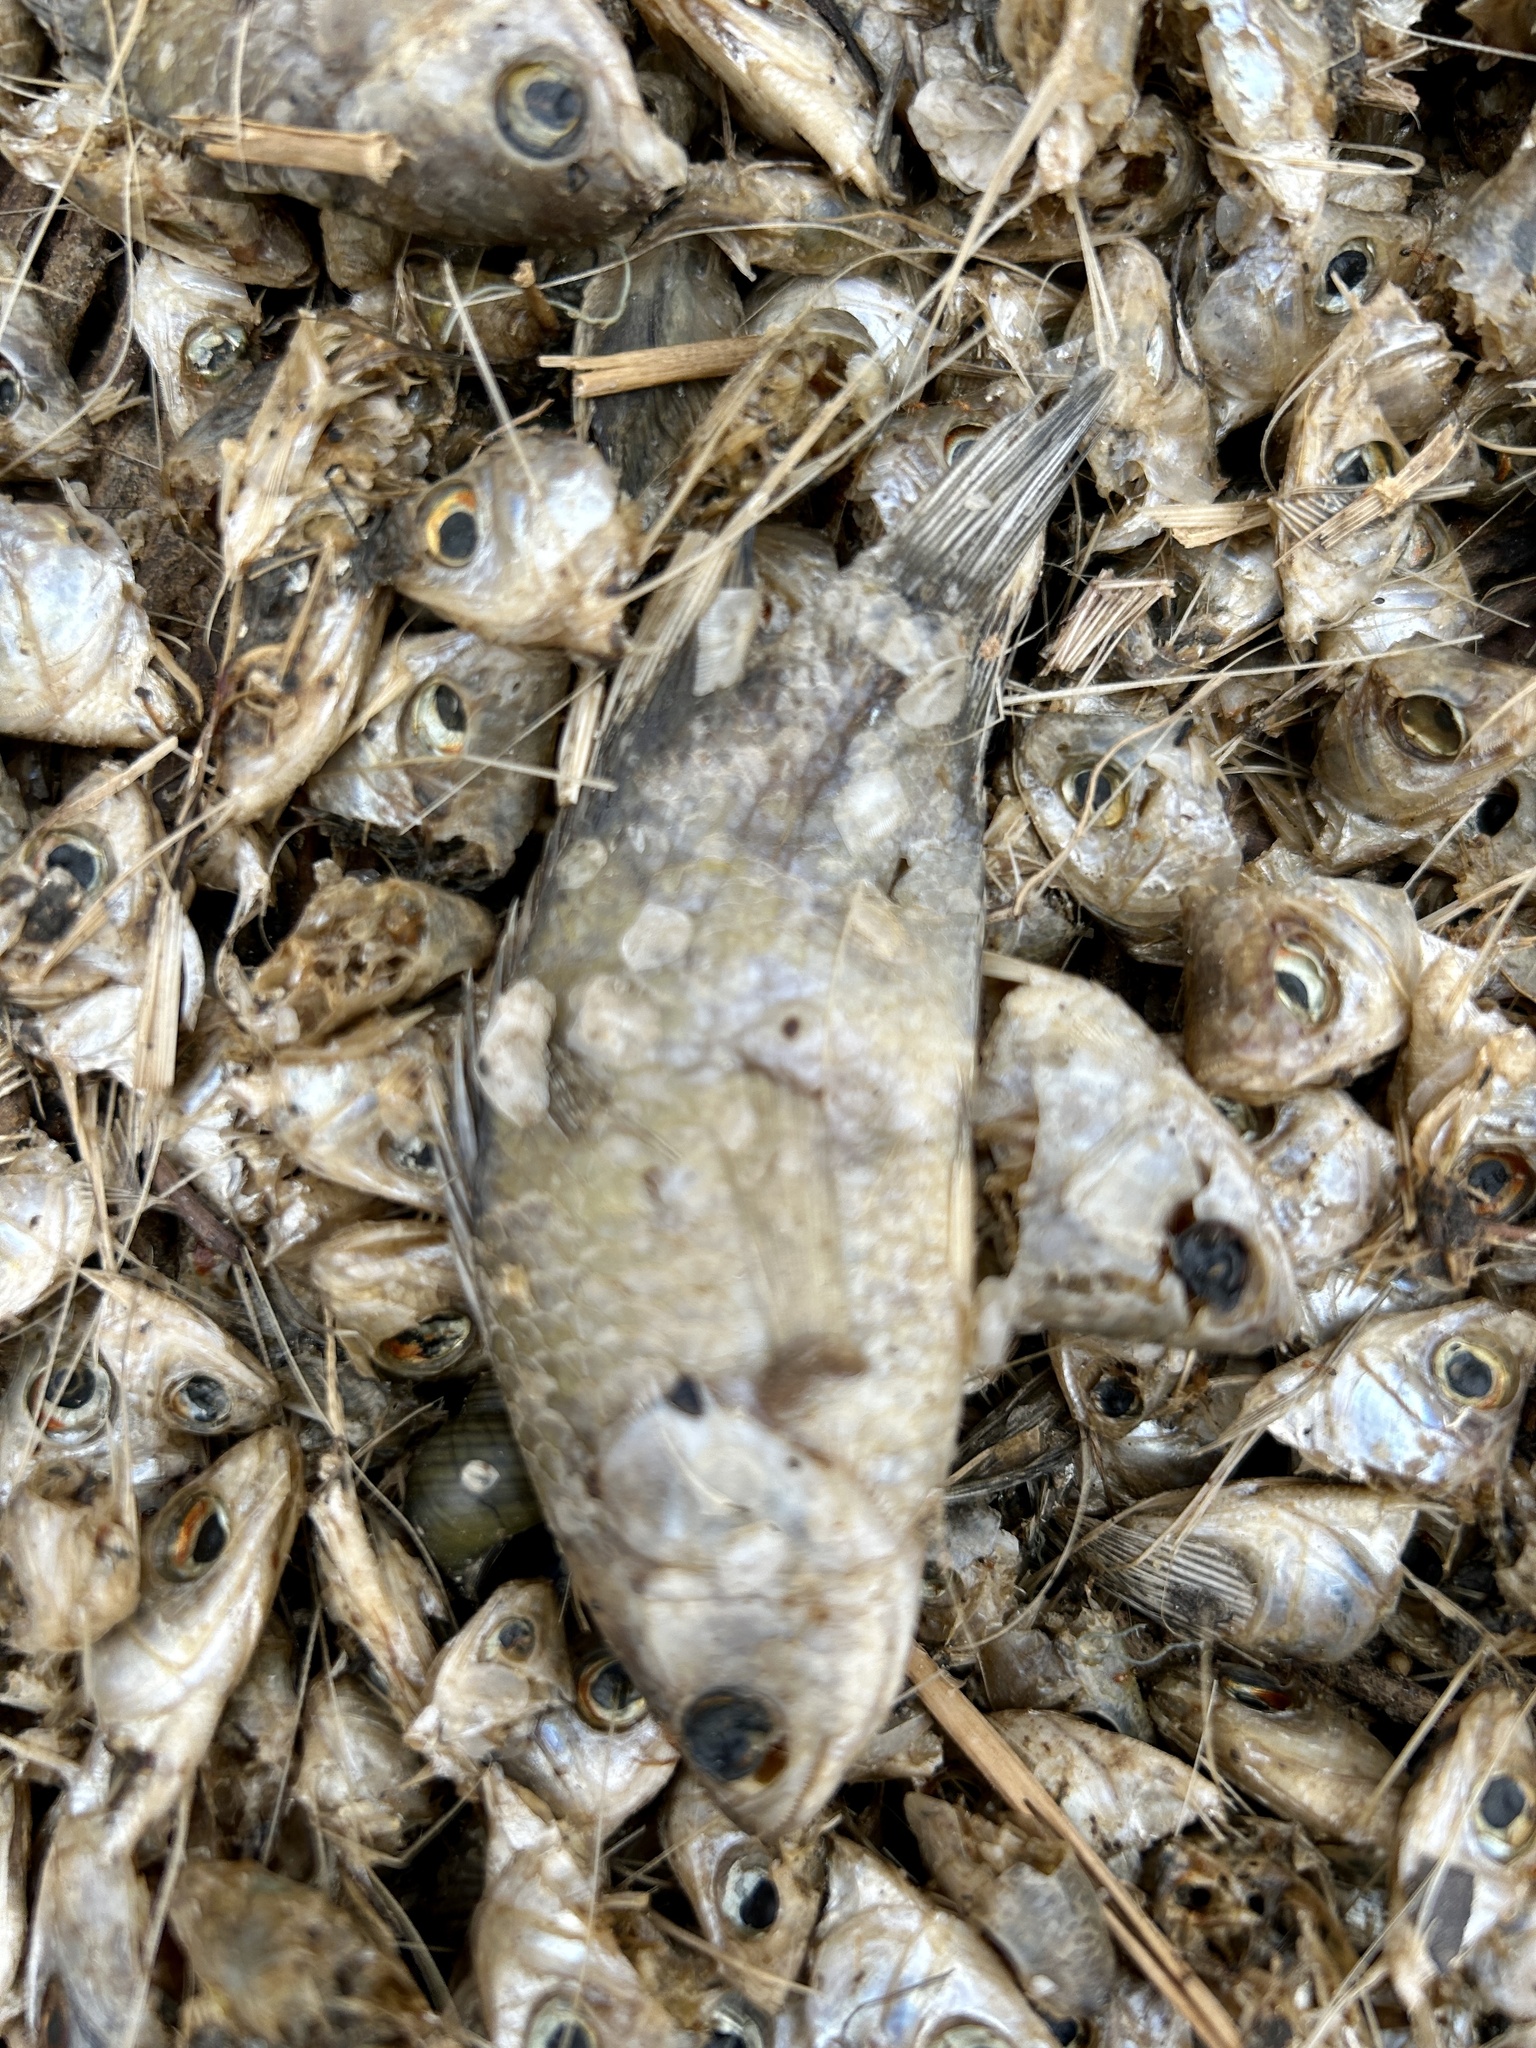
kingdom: Animalia
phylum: Chordata
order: Perciformes
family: Anabantidae
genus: Anabas
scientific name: Anabas testudineus
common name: Climbing perch
